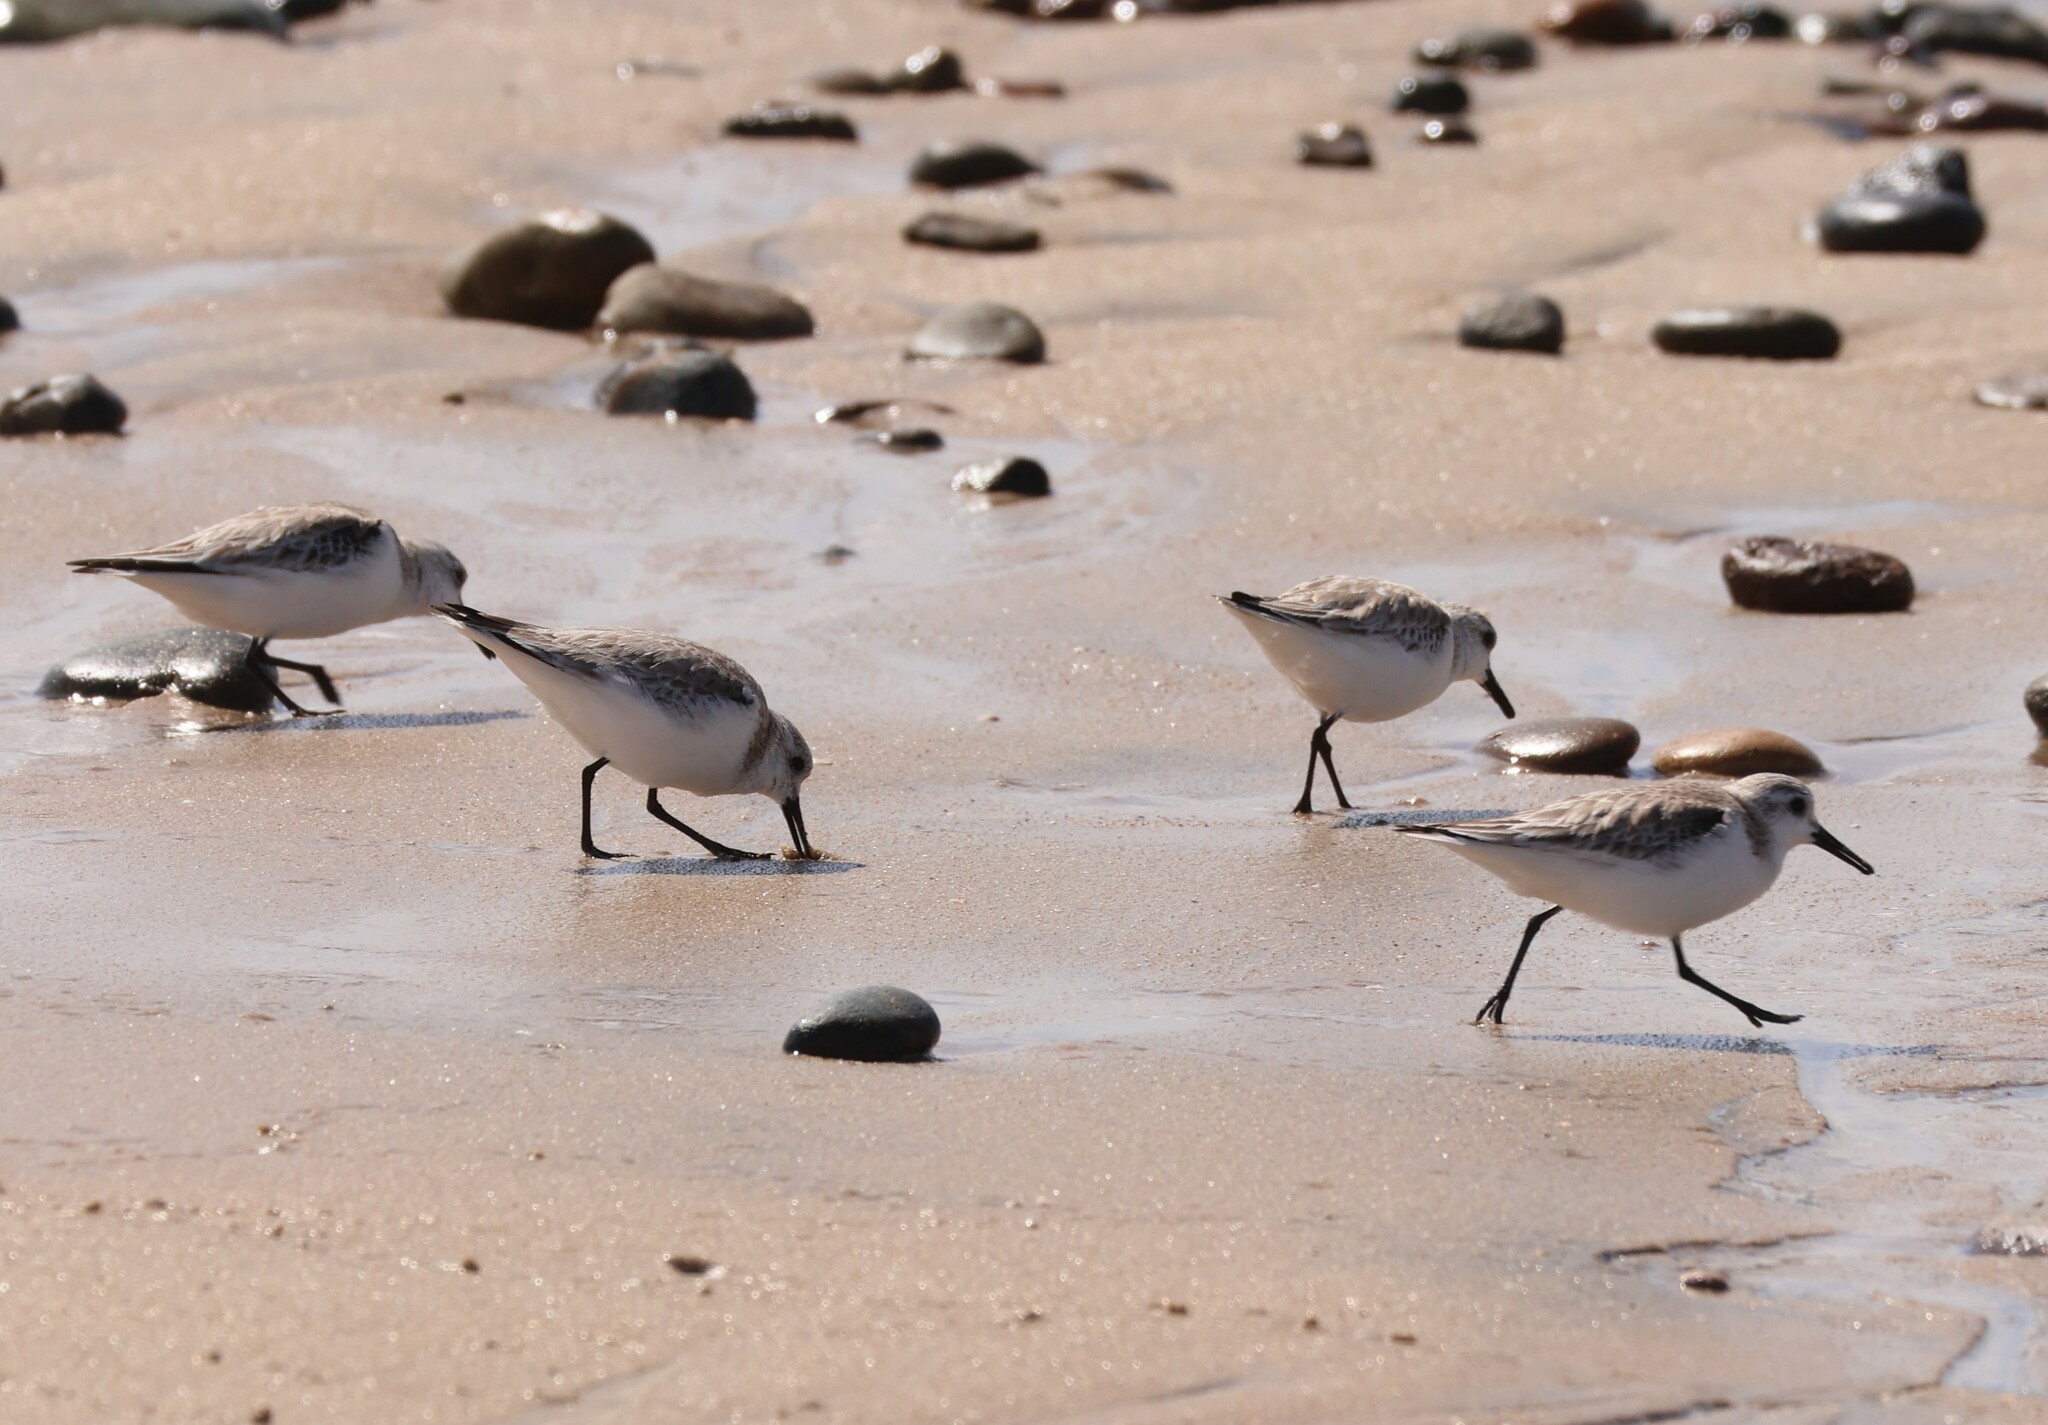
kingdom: Animalia
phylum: Chordata
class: Aves
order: Charadriiformes
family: Scolopacidae
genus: Calidris
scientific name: Calidris alba
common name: Sanderling
